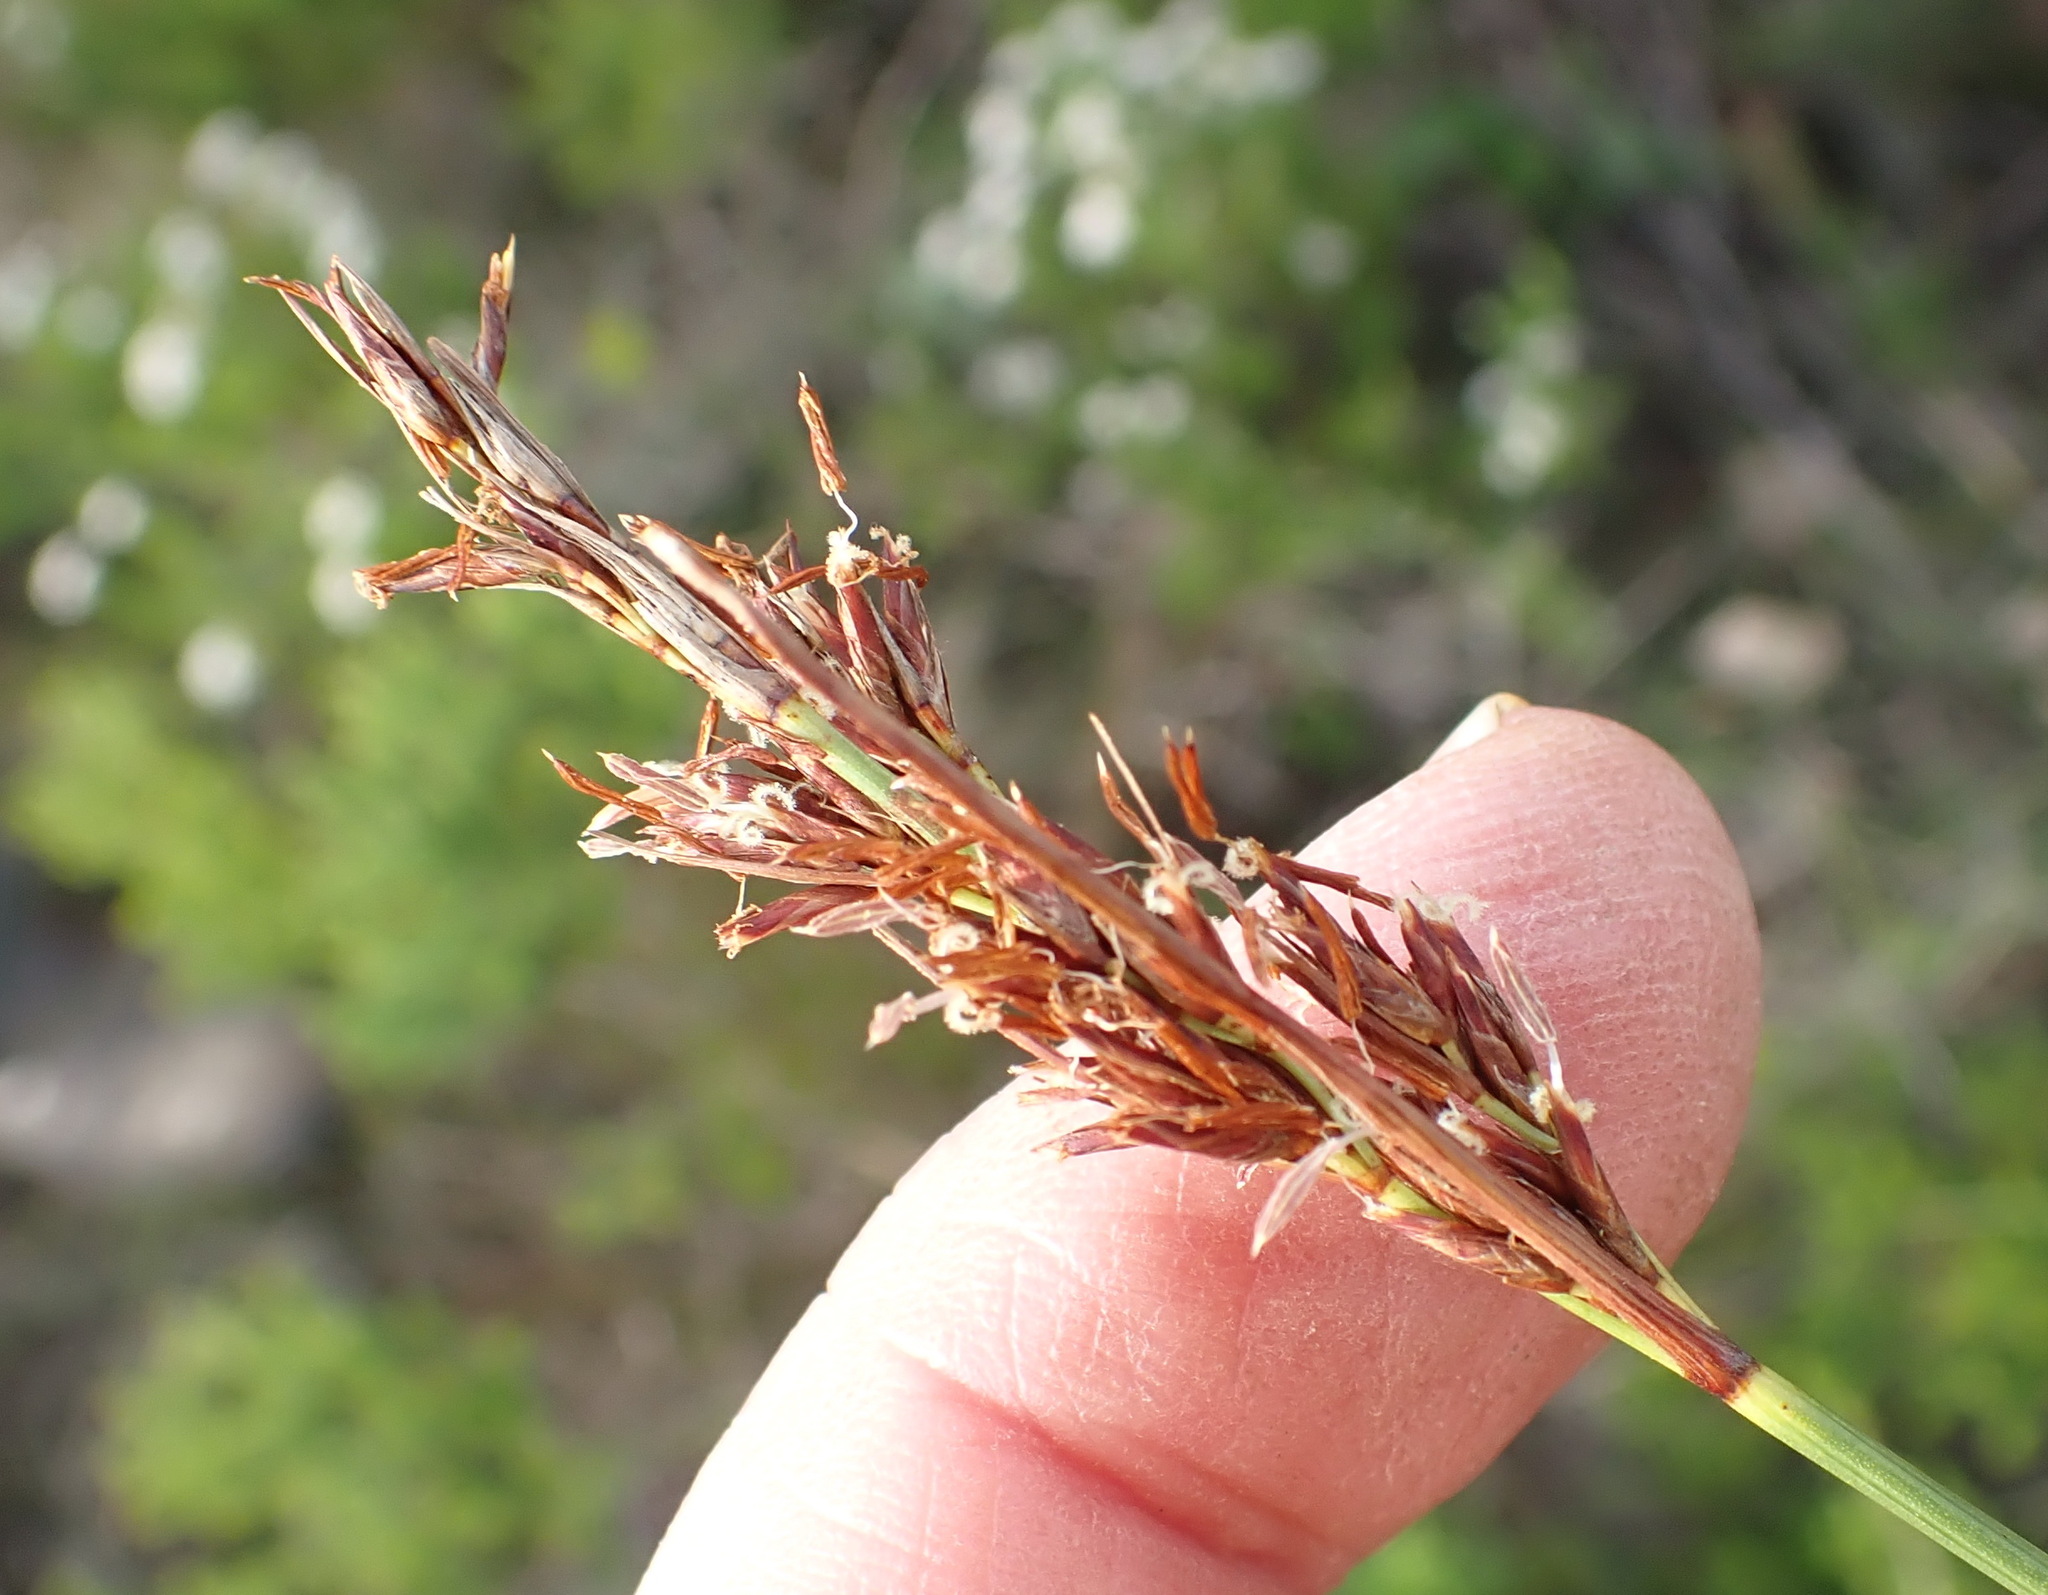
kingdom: Plantae
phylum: Tracheophyta
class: Liliopsida
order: Poales
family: Cyperaceae
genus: Schoenus
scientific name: Schoenus graciliculmis
